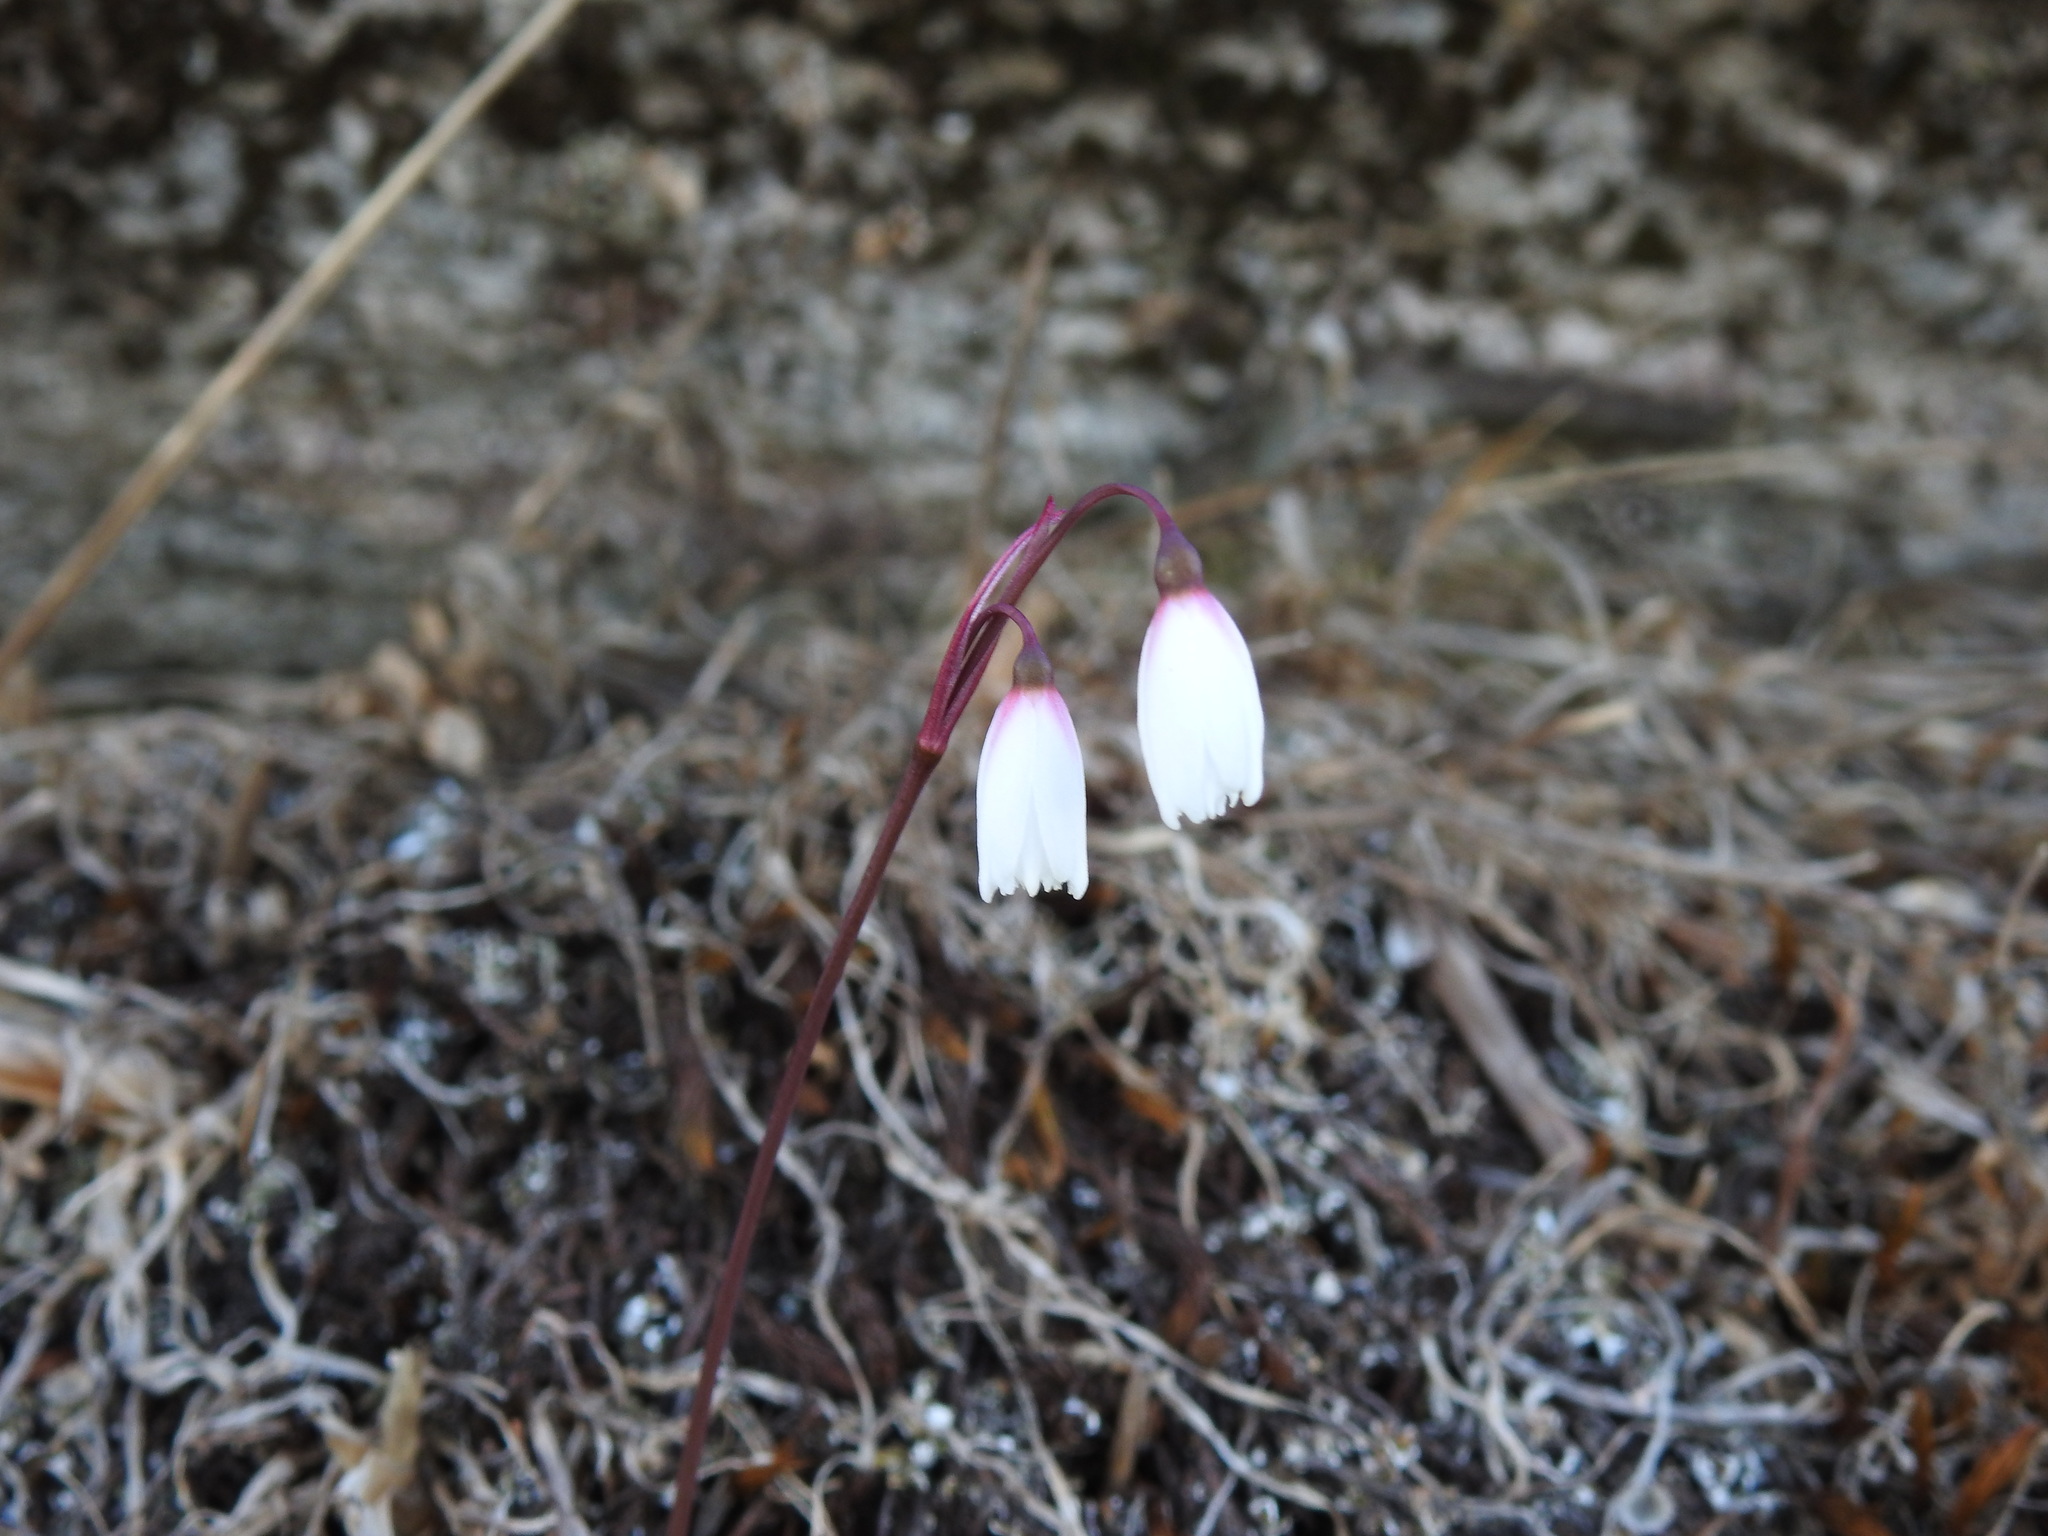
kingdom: Plantae
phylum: Tracheophyta
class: Liliopsida
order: Asparagales
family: Amaryllidaceae
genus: Acis
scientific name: Acis autumnalis
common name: Autumn snowflake
